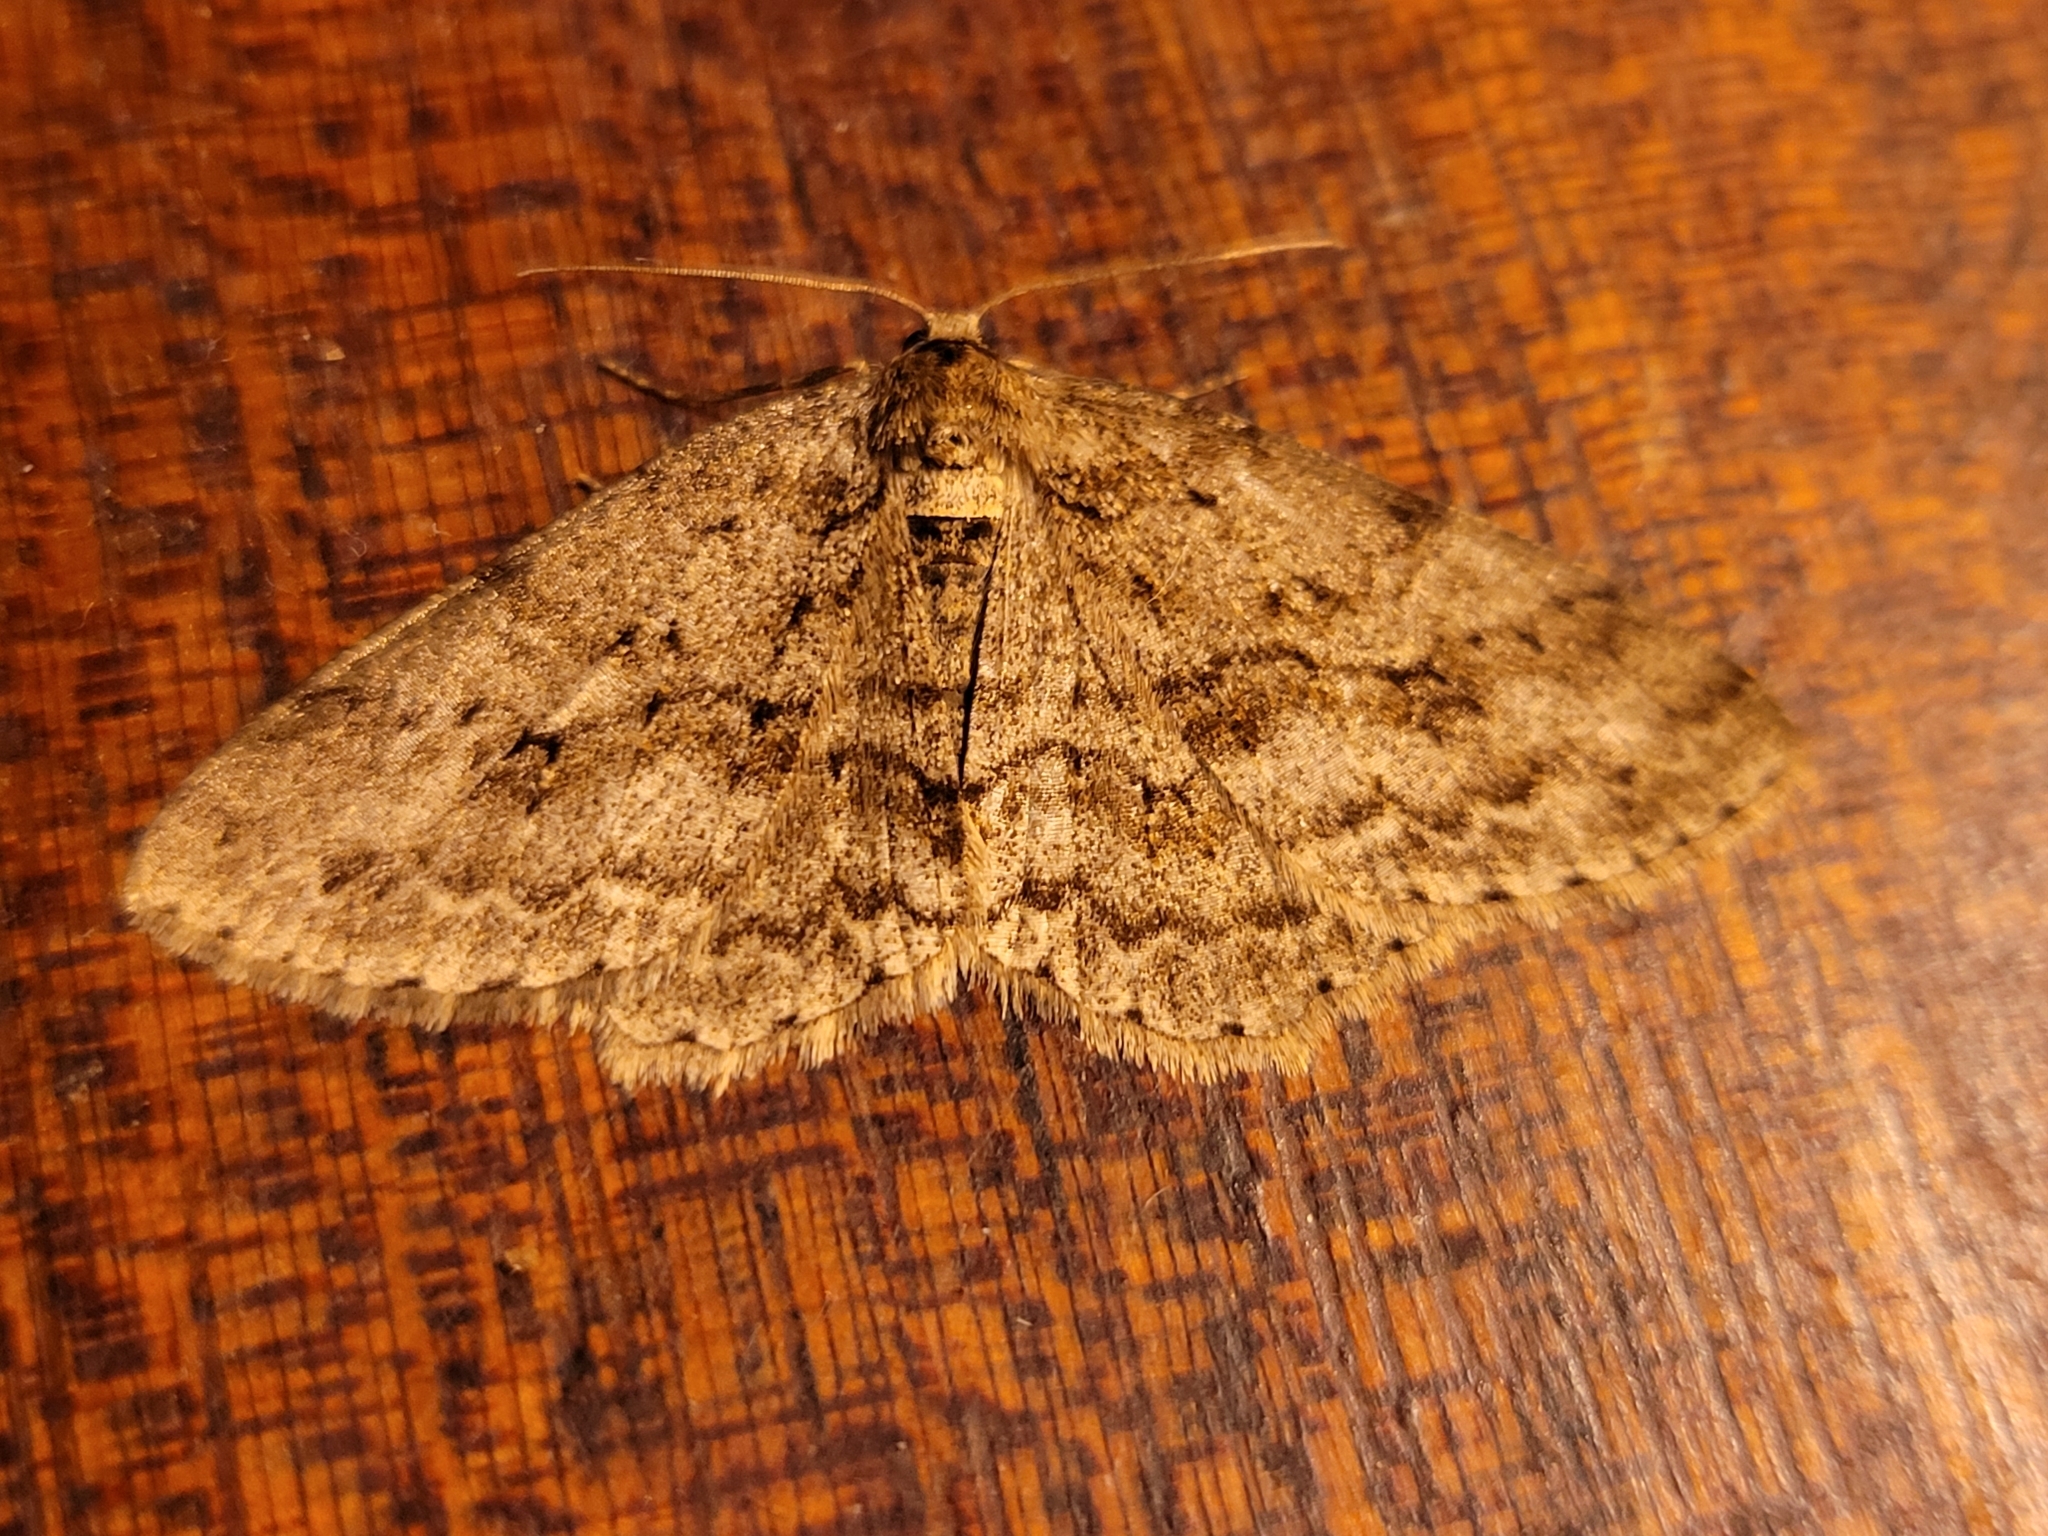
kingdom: Animalia
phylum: Arthropoda
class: Insecta
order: Lepidoptera
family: Geometridae
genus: Ectropis
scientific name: Ectropis crepuscularia
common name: Engrailed
